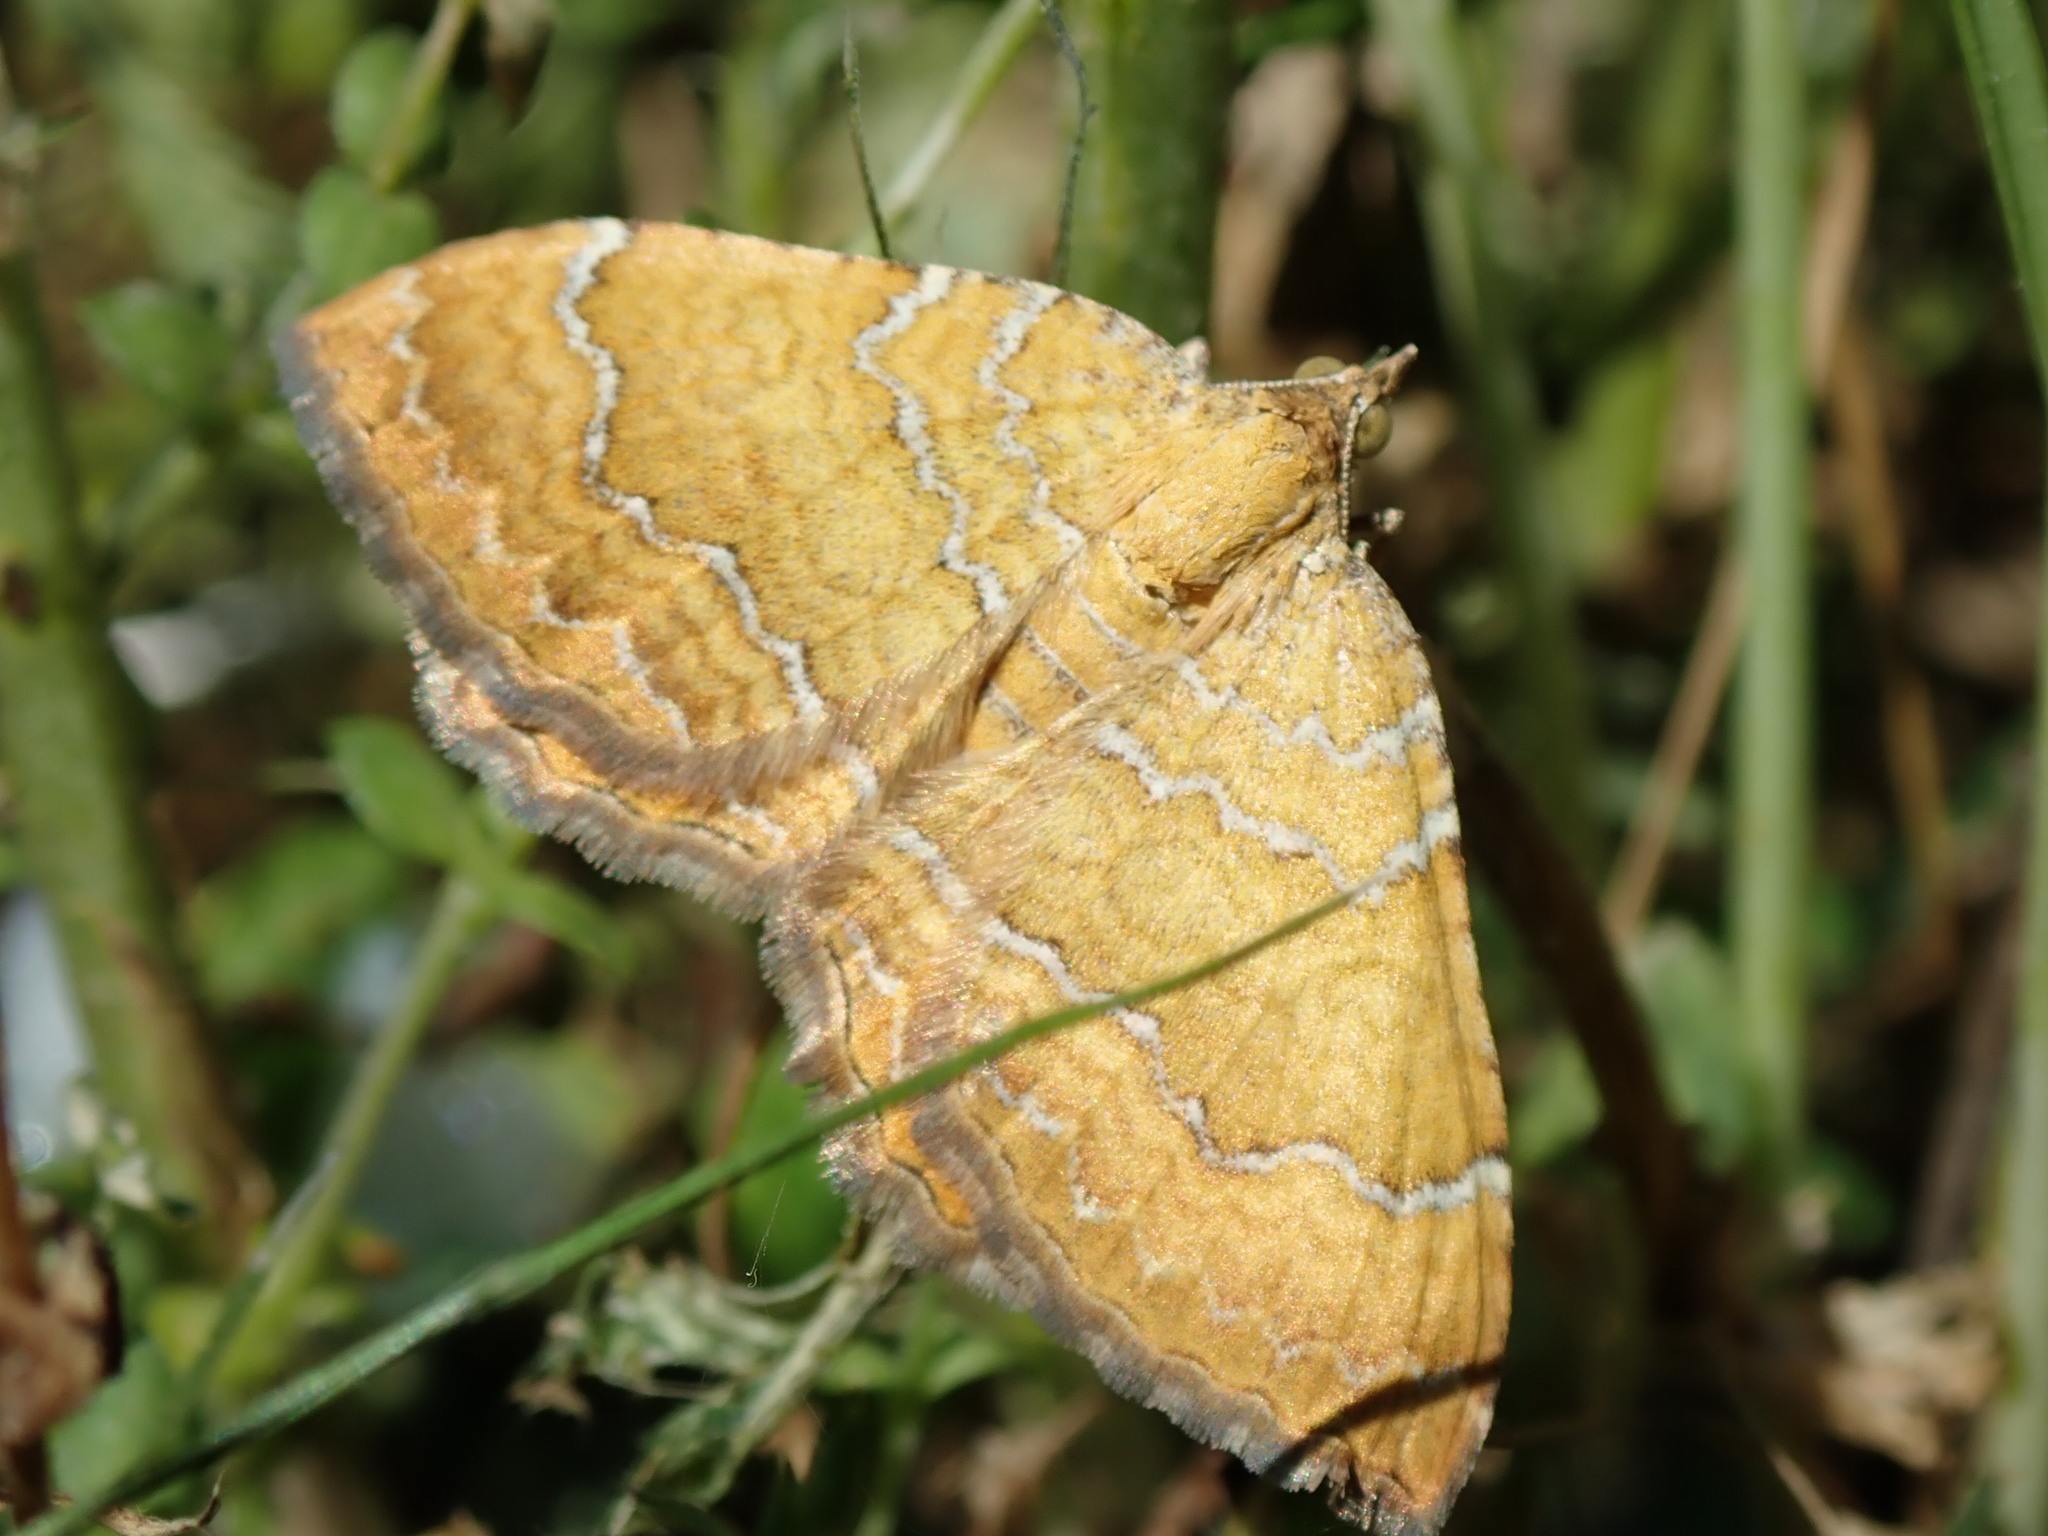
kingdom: Animalia
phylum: Arthropoda
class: Insecta
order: Lepidoptera
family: Geometridae
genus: Camptogramma
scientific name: Camptogramma bilineata
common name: Yellow shell
